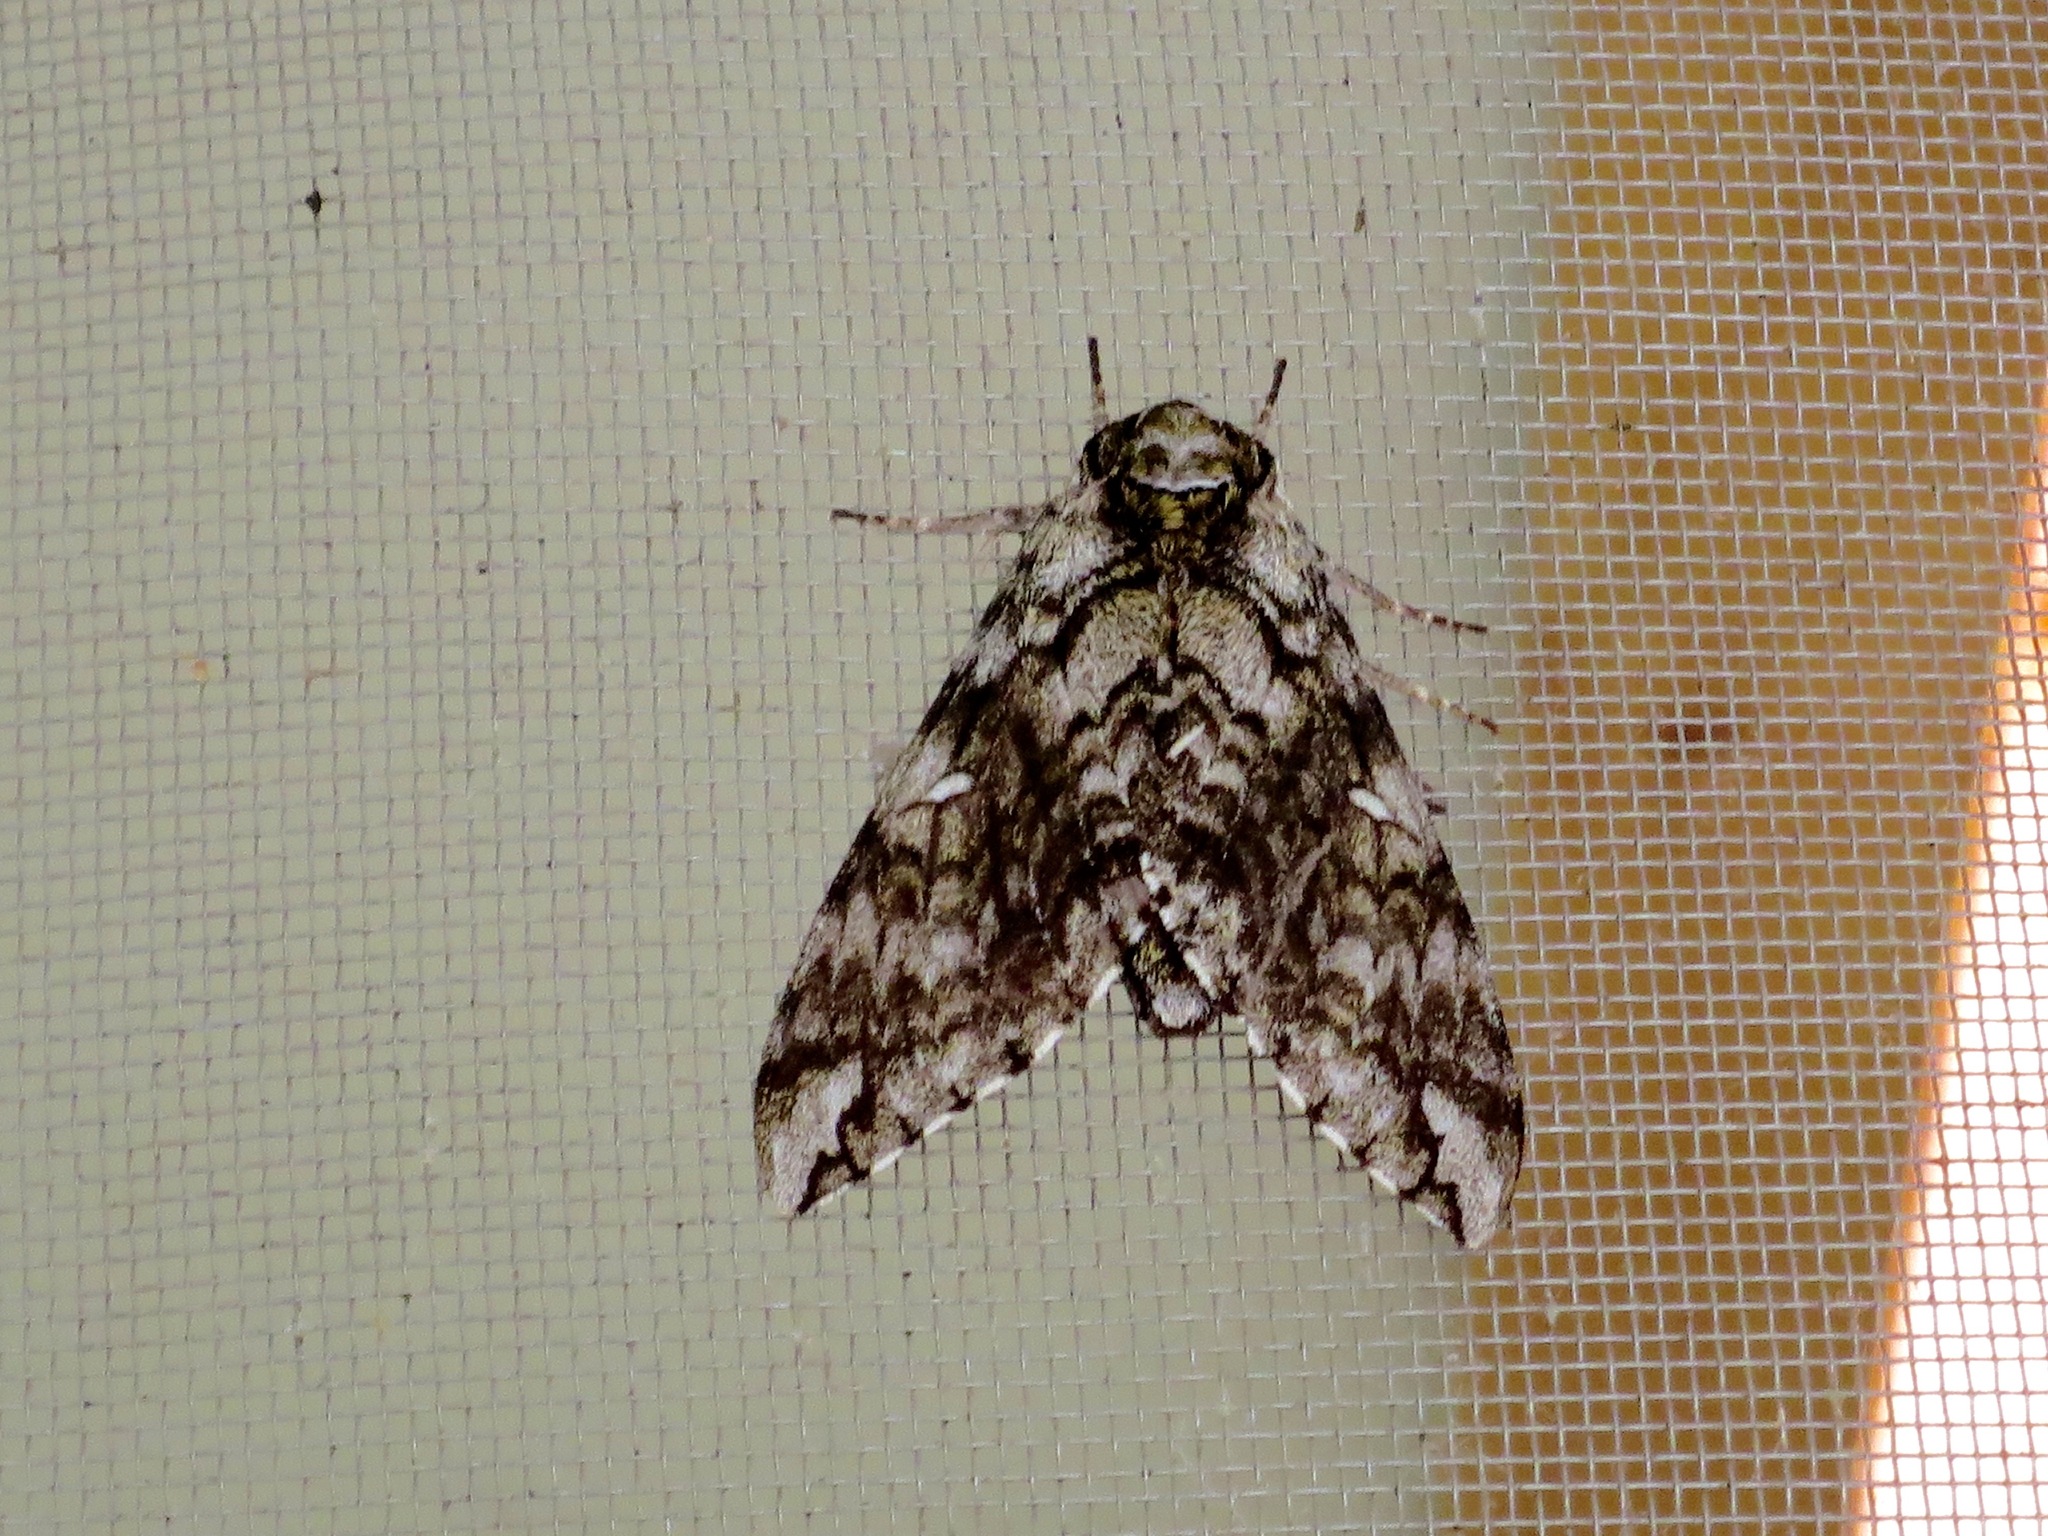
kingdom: Animalia
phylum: Arthropoda
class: Insecta
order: Lepidoptera
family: Sphingidae
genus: Ceratomia
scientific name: Ceratomia undulosa
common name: Waved sphinx
